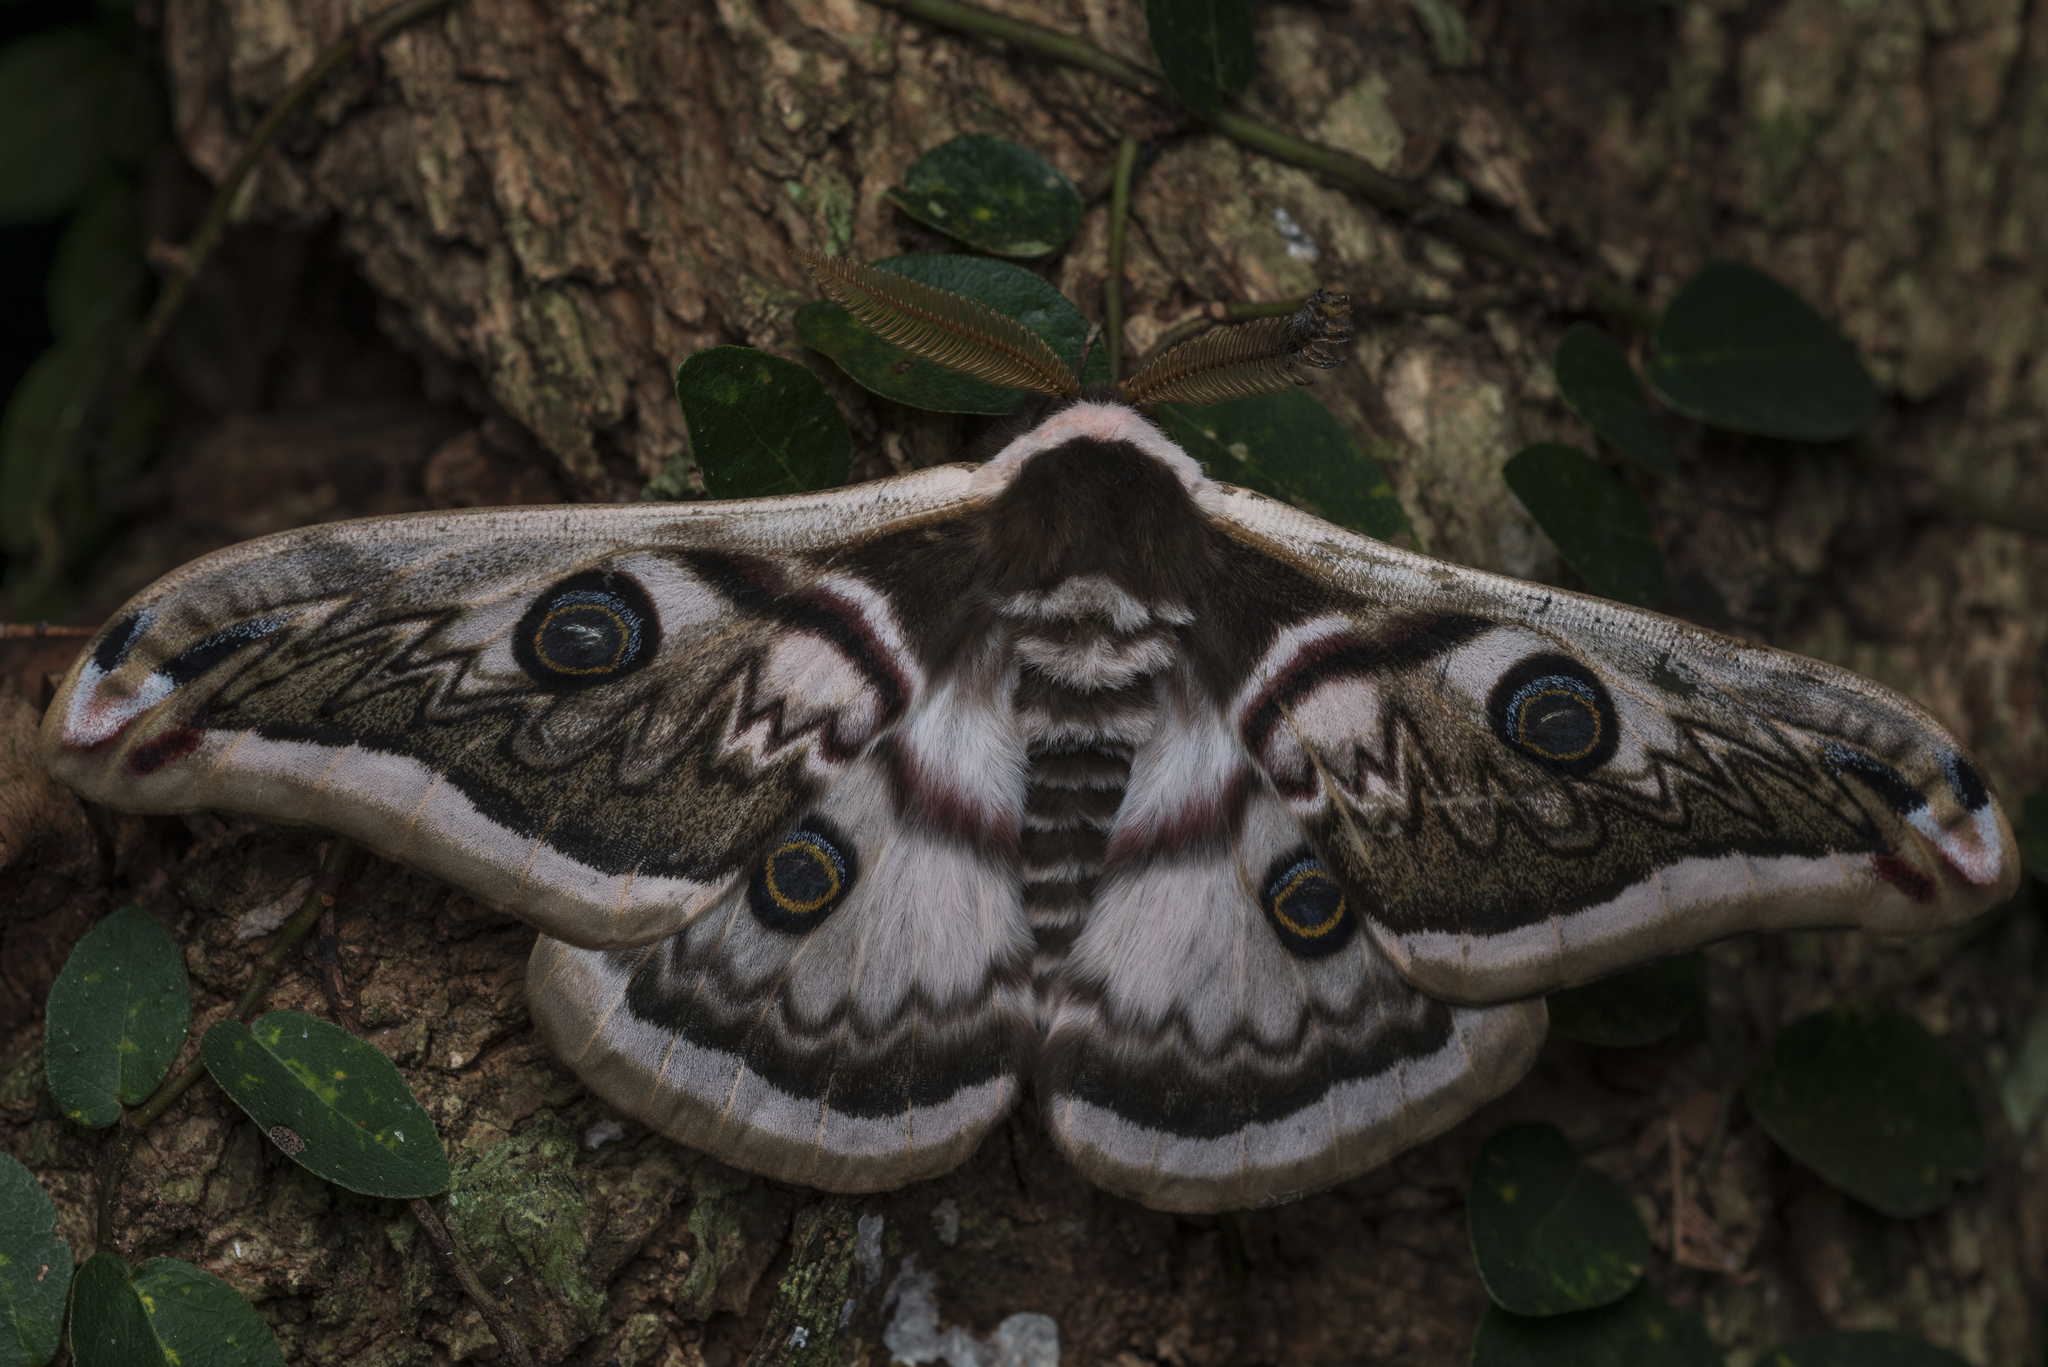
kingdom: Animalia
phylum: Arthropoda
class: Insecta
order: Lepidoptera
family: Saturniidae
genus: Saturnia
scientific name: Saturnia pyretorum
